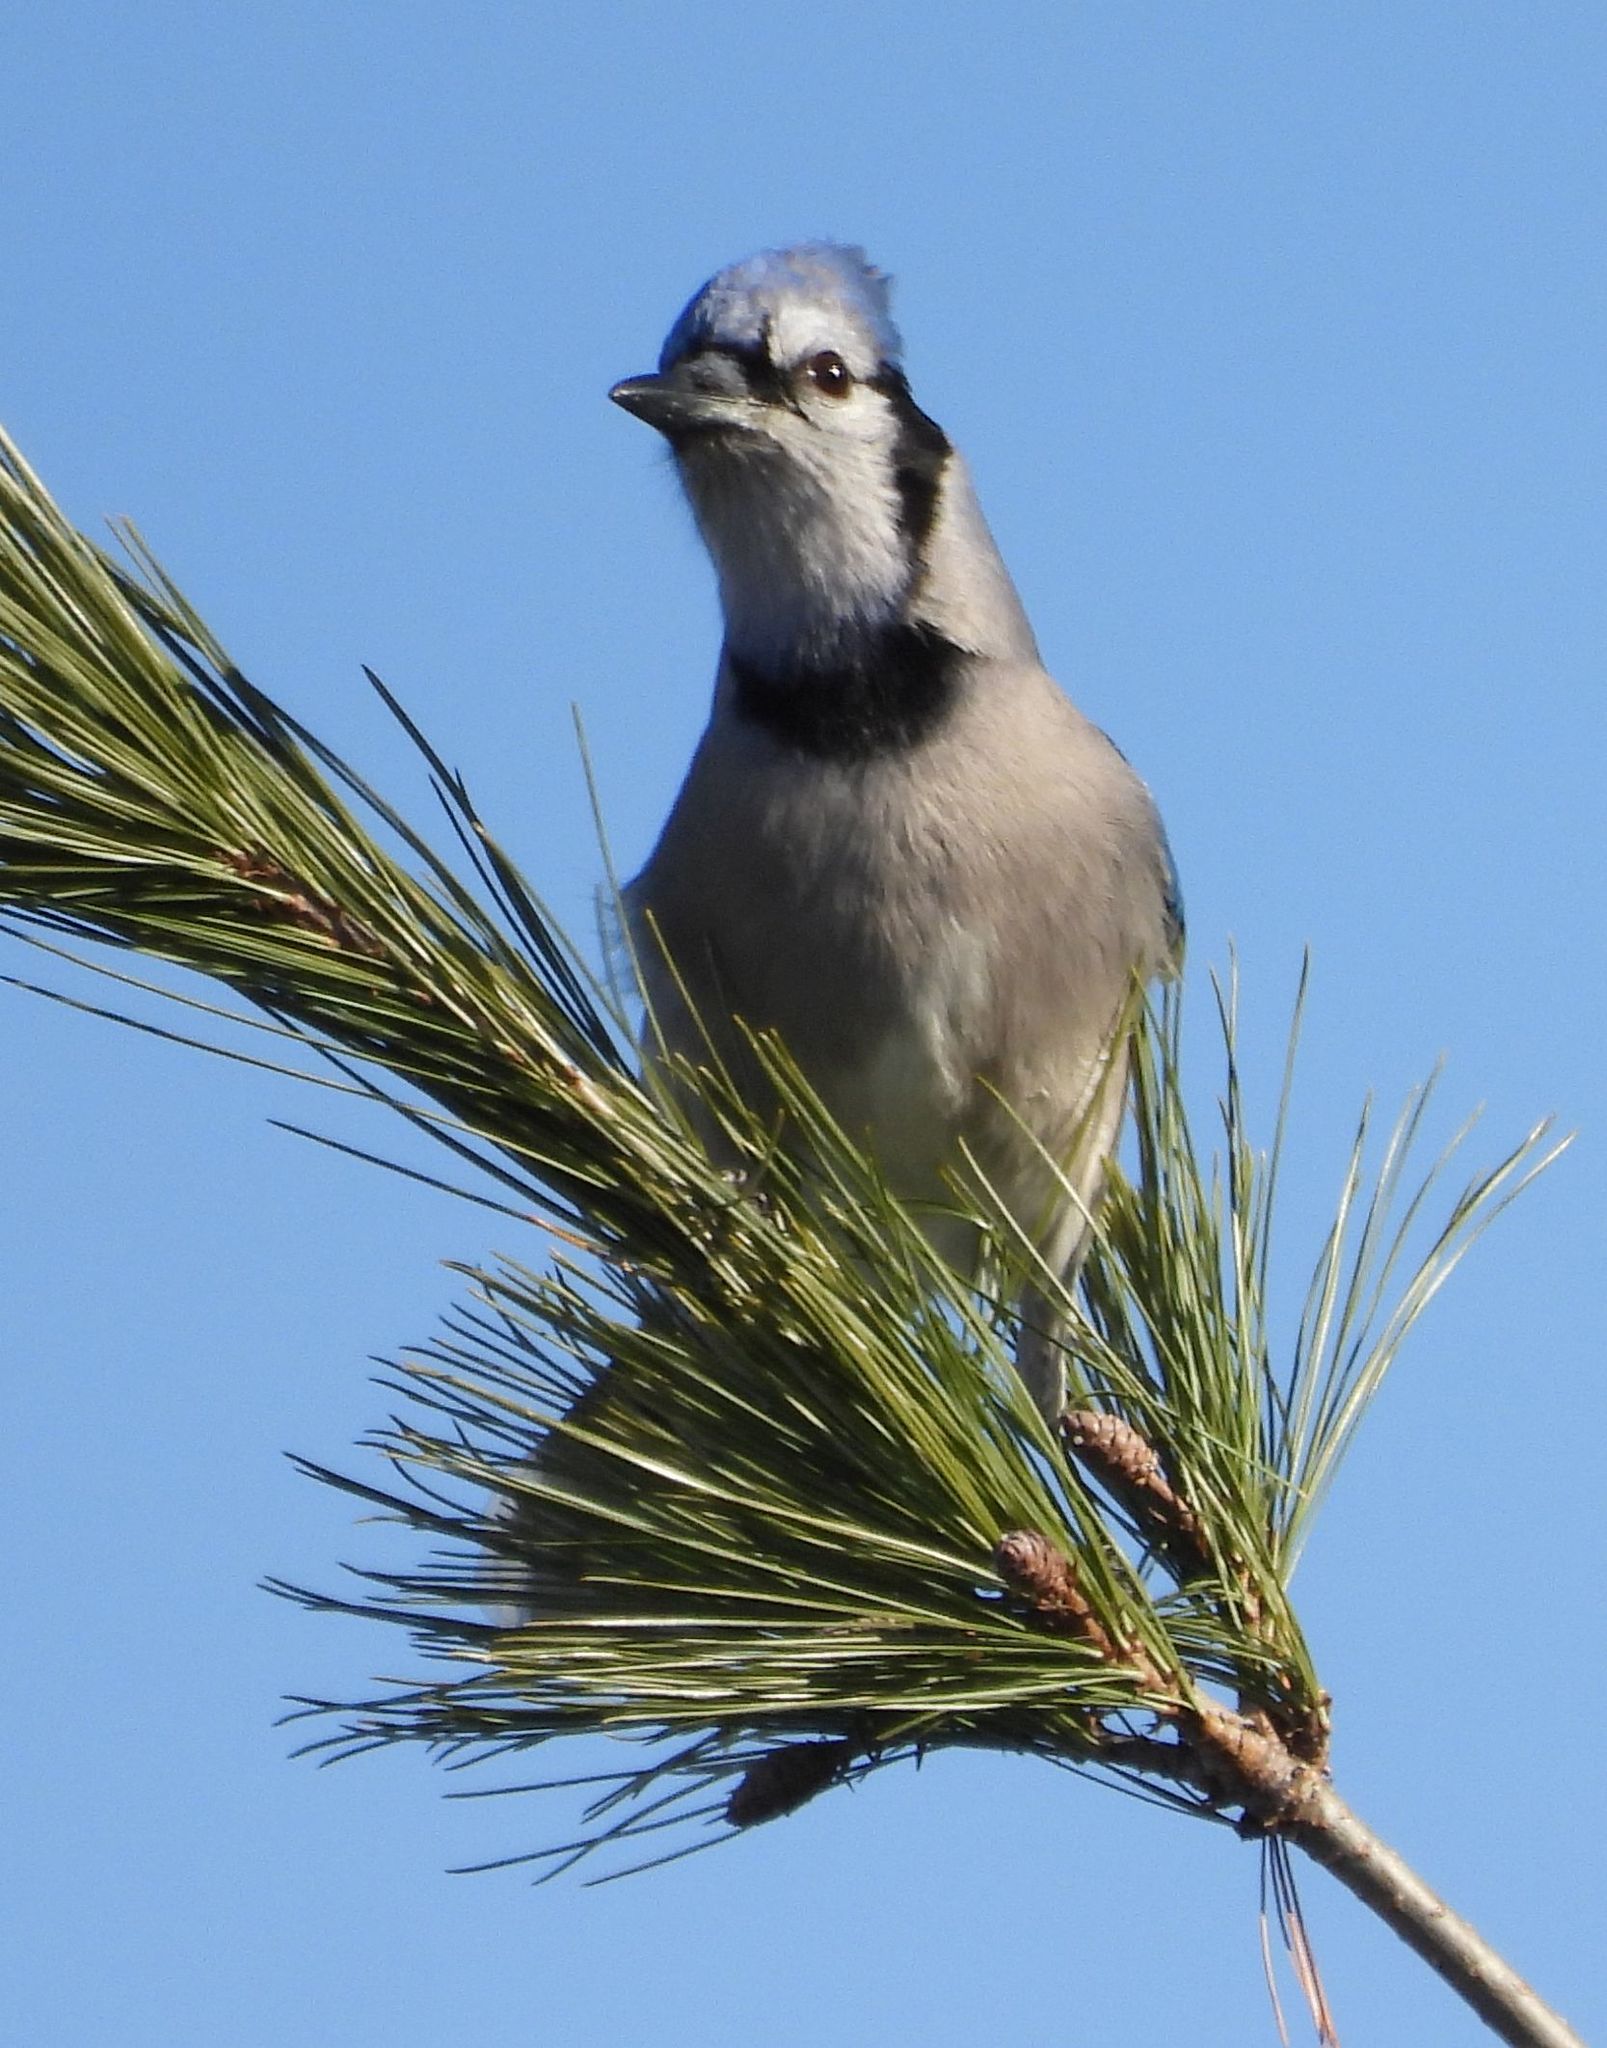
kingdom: Animalia
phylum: Chordata
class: Aves
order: Passeriformes
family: Corvidae
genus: Cyanocitta
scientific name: Cyanocitta cristata
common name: Blue jay
